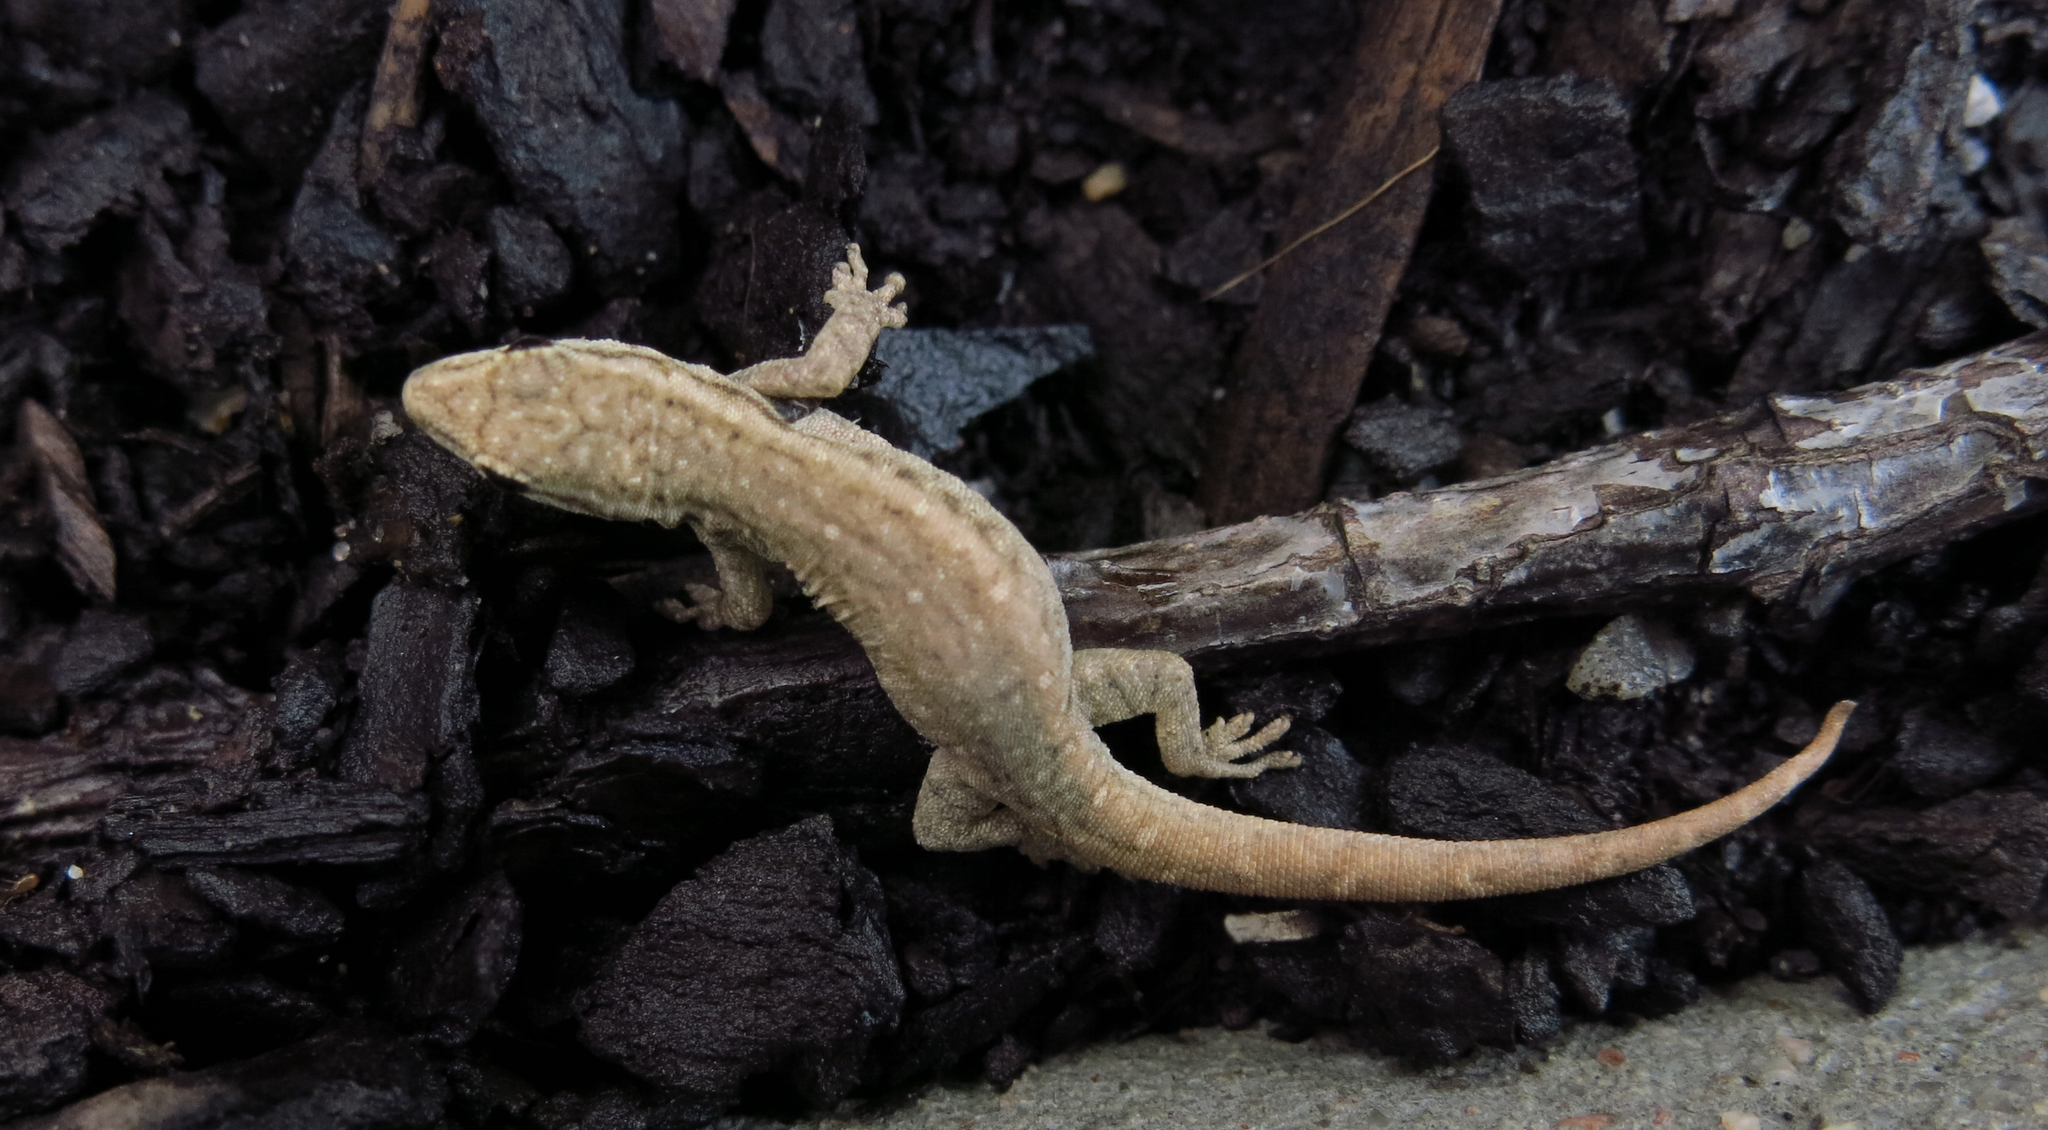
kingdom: Animalia
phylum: Chordata
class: Squamata
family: Gekkonidae
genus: Lygodactylus
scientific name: Lygodactylus capensis
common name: Cape dwarf gecko
